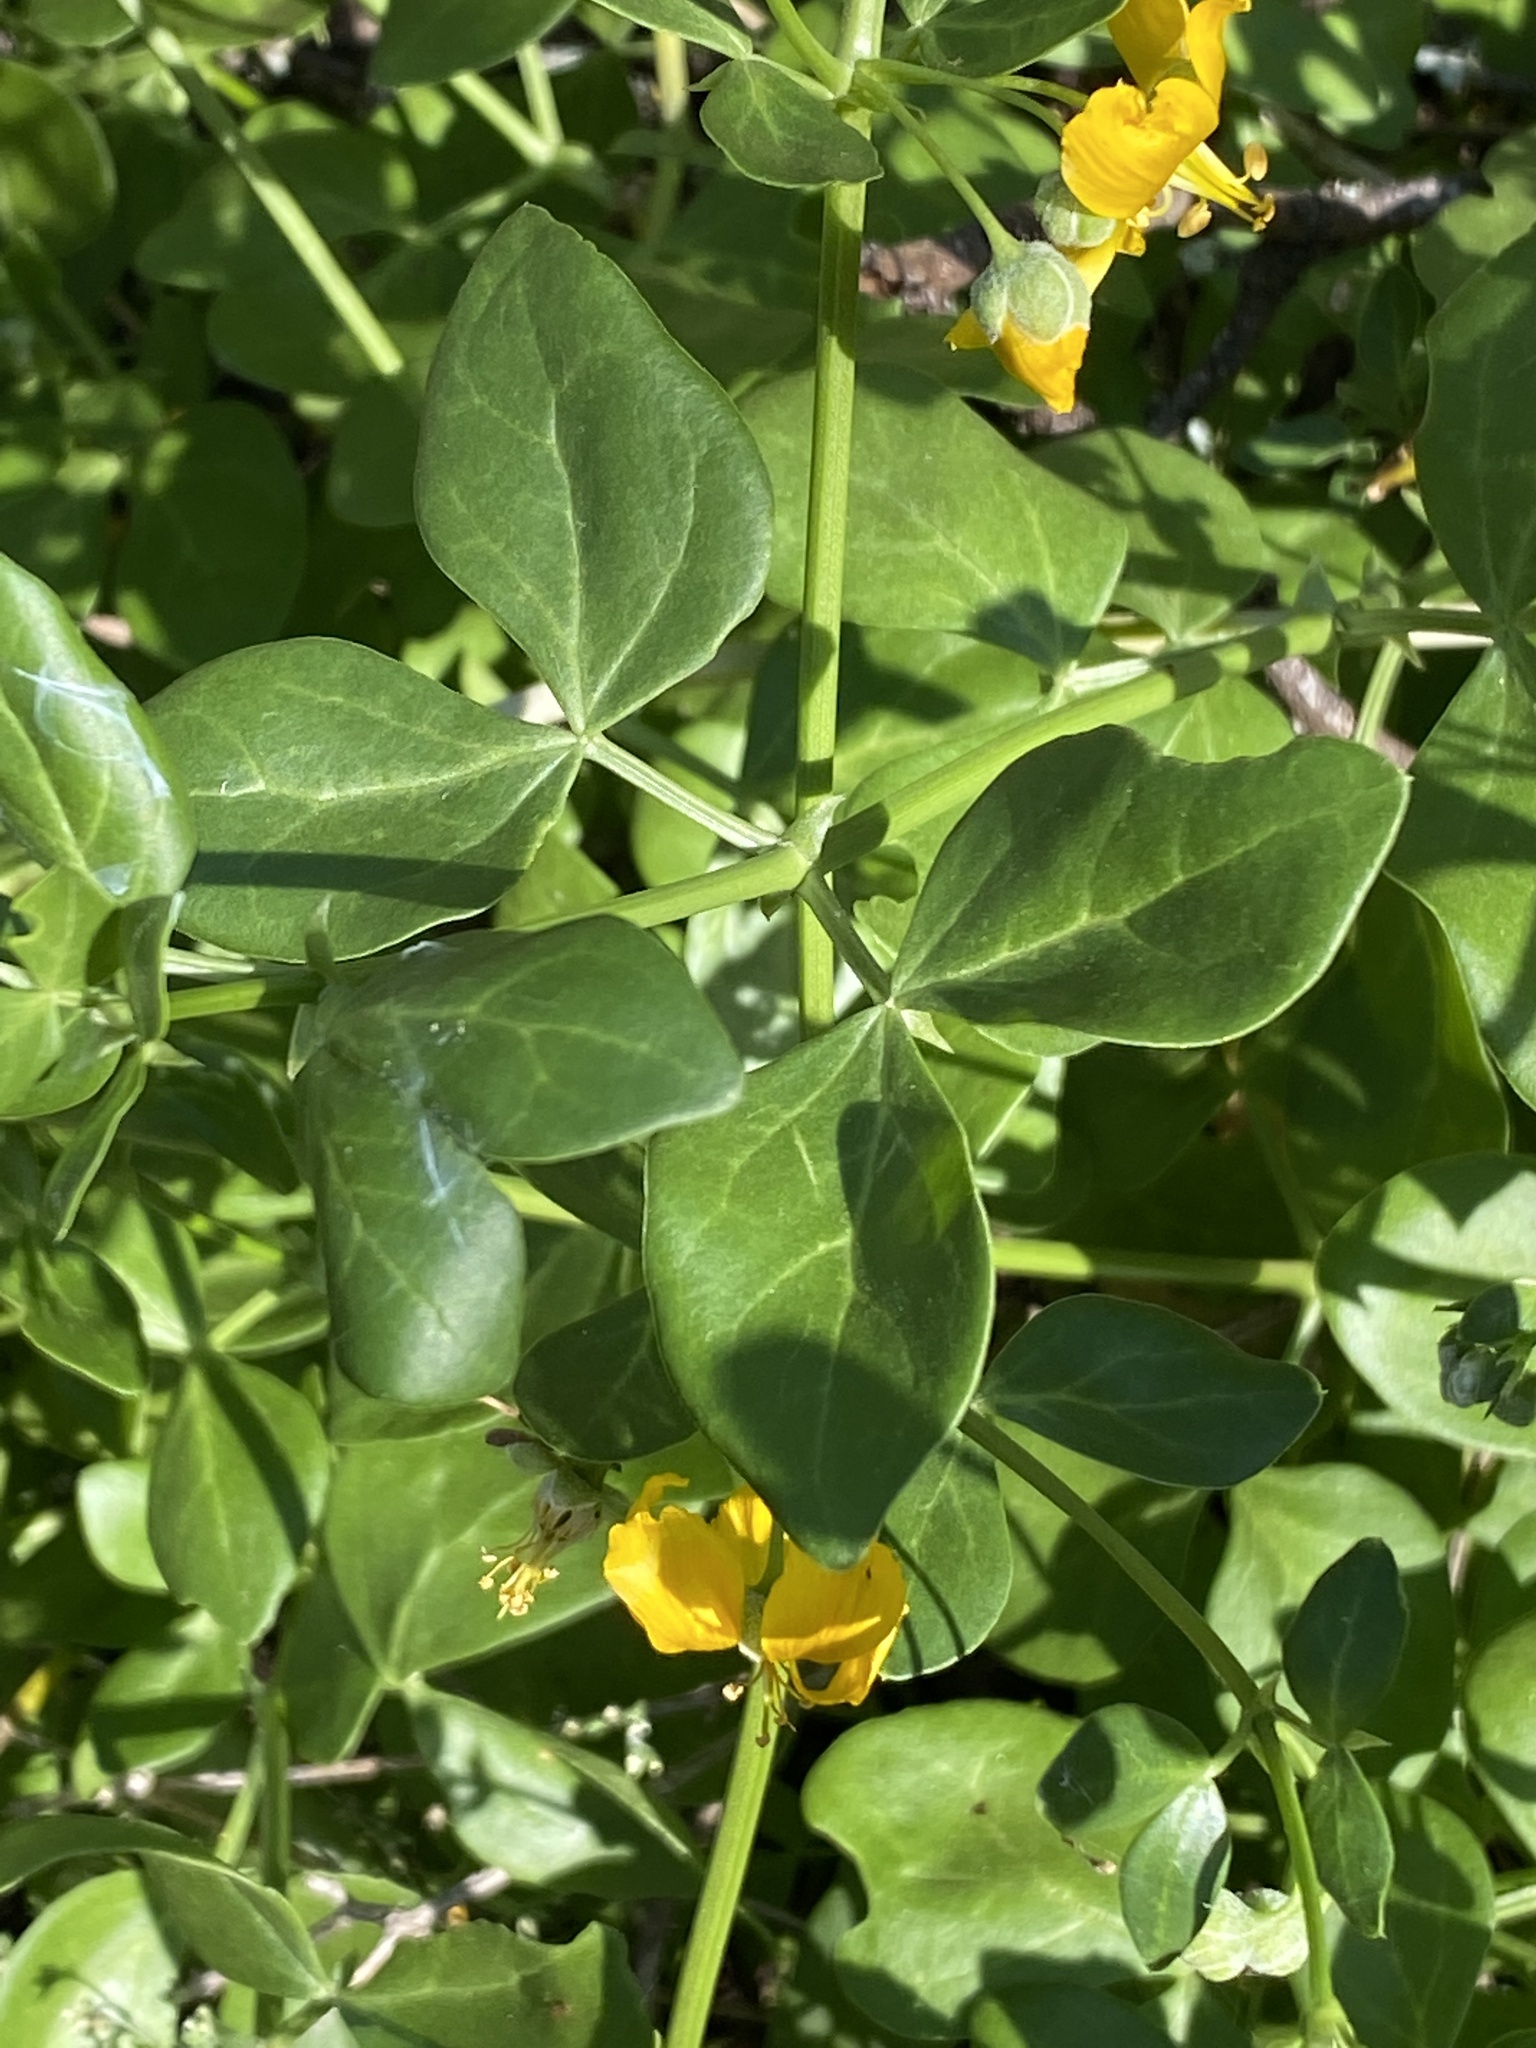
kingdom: Plantae
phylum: Tracheophyta
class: Magnoliopsida
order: Zygophyllales
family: Zygophyllaceae
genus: Roepera
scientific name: Roepera foetida
